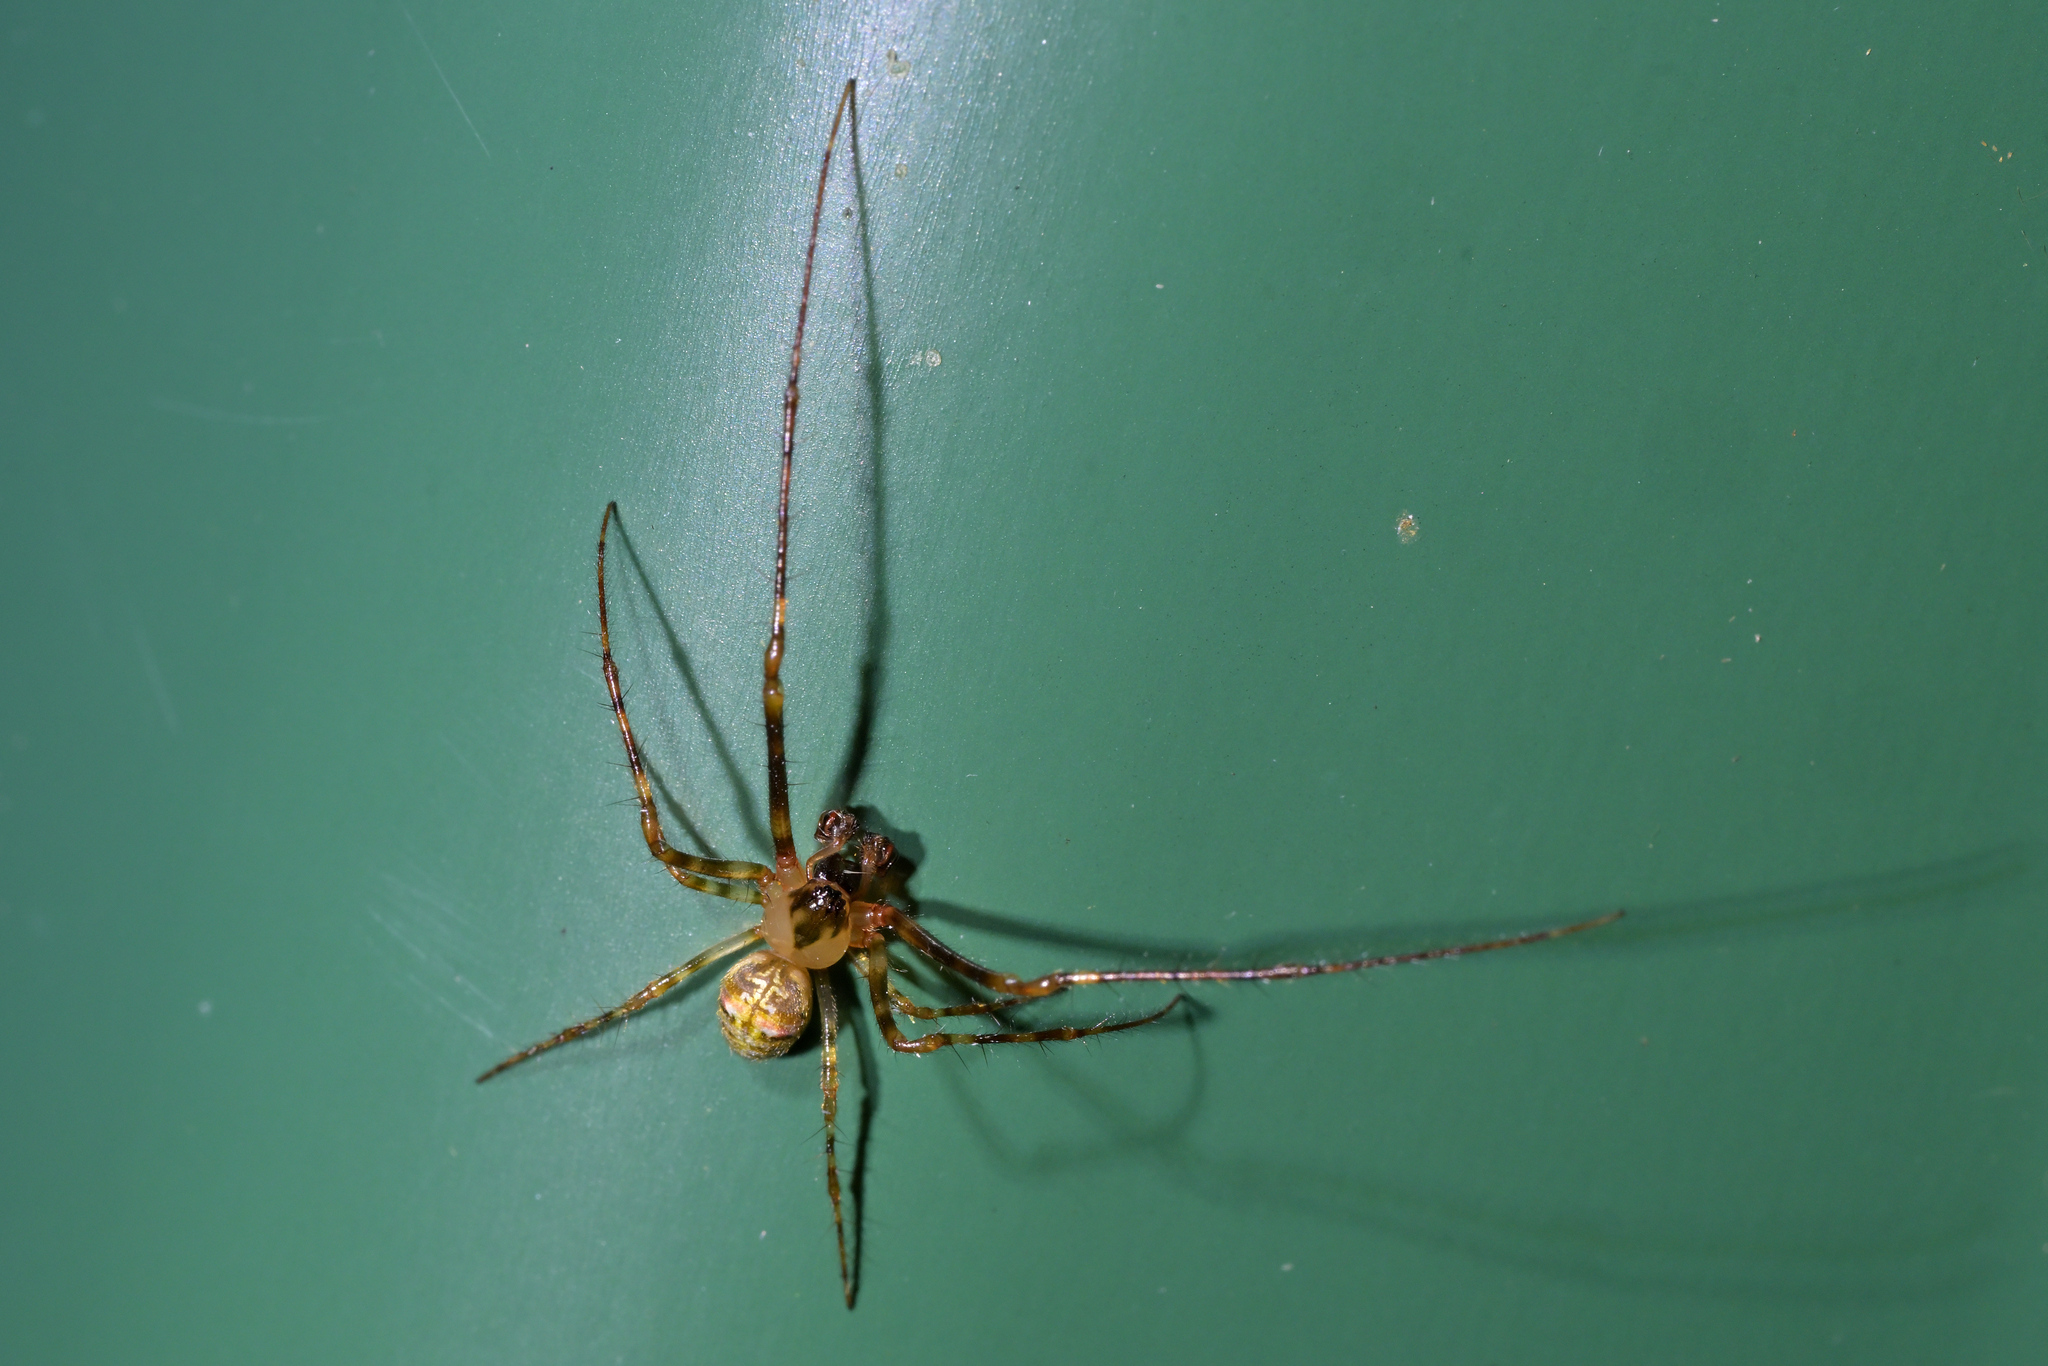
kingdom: Animalia
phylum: Arthropoda
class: Arachnida
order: Araneae
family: Tetragnathidae
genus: Taraire
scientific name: Taraire rufolineata
